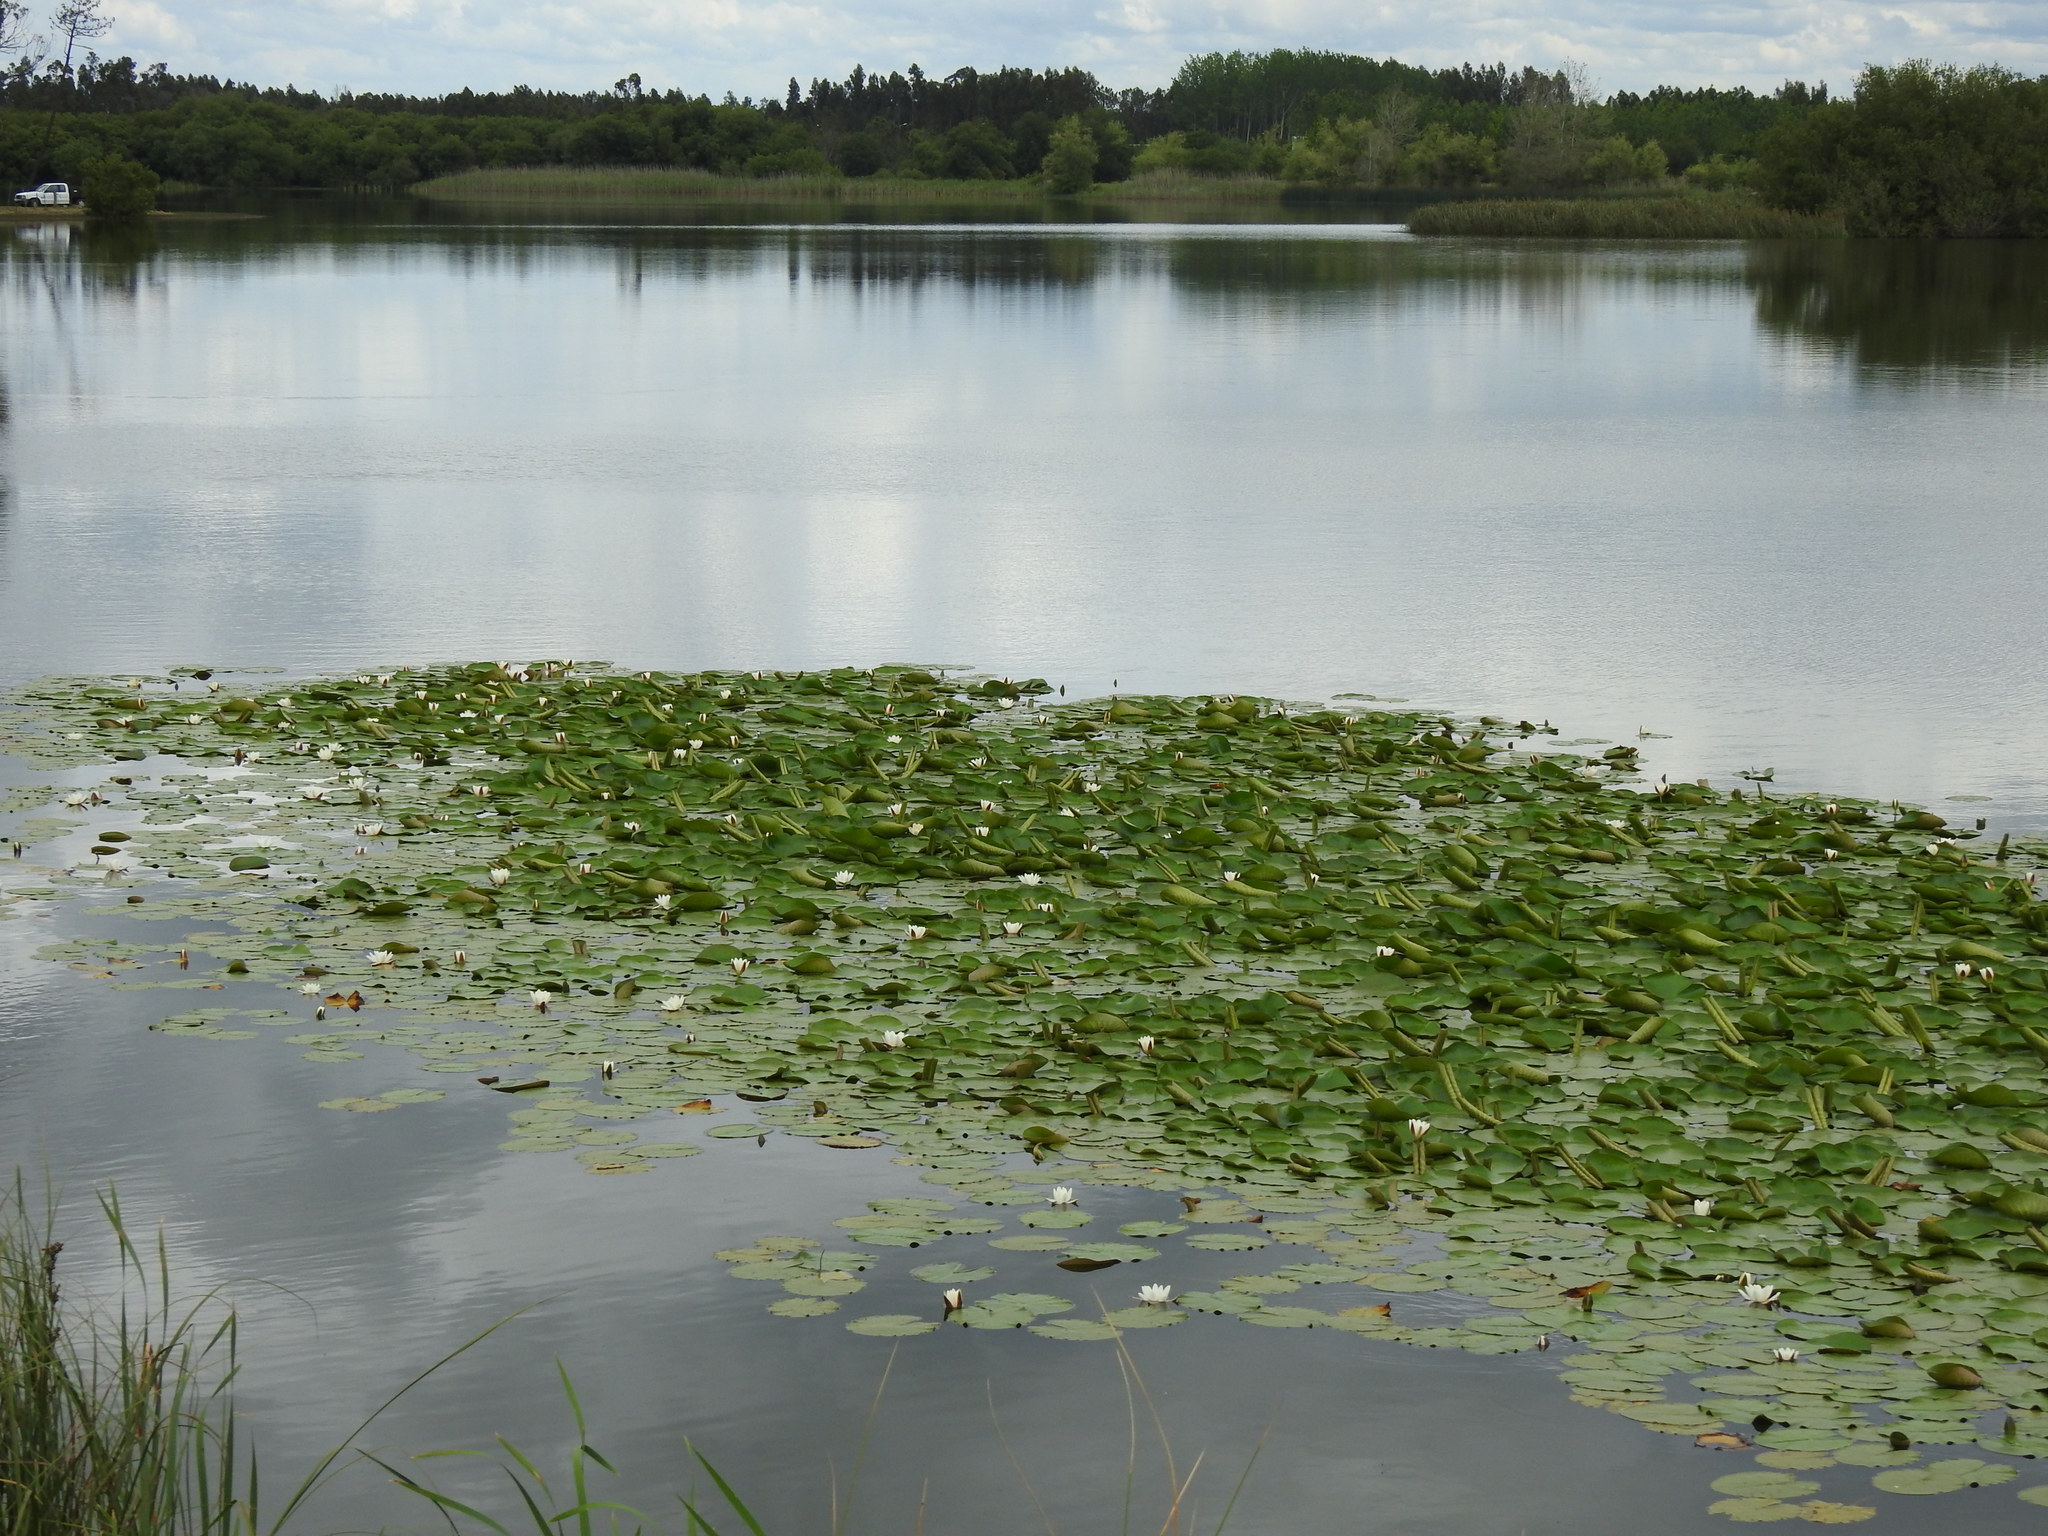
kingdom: Plantae
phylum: Tracheophyta
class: Magnoliopsida
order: Nymphaeales
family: Nymphaeaceae
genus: Nymphaea
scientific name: Nymphaea alba
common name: White water-lily
